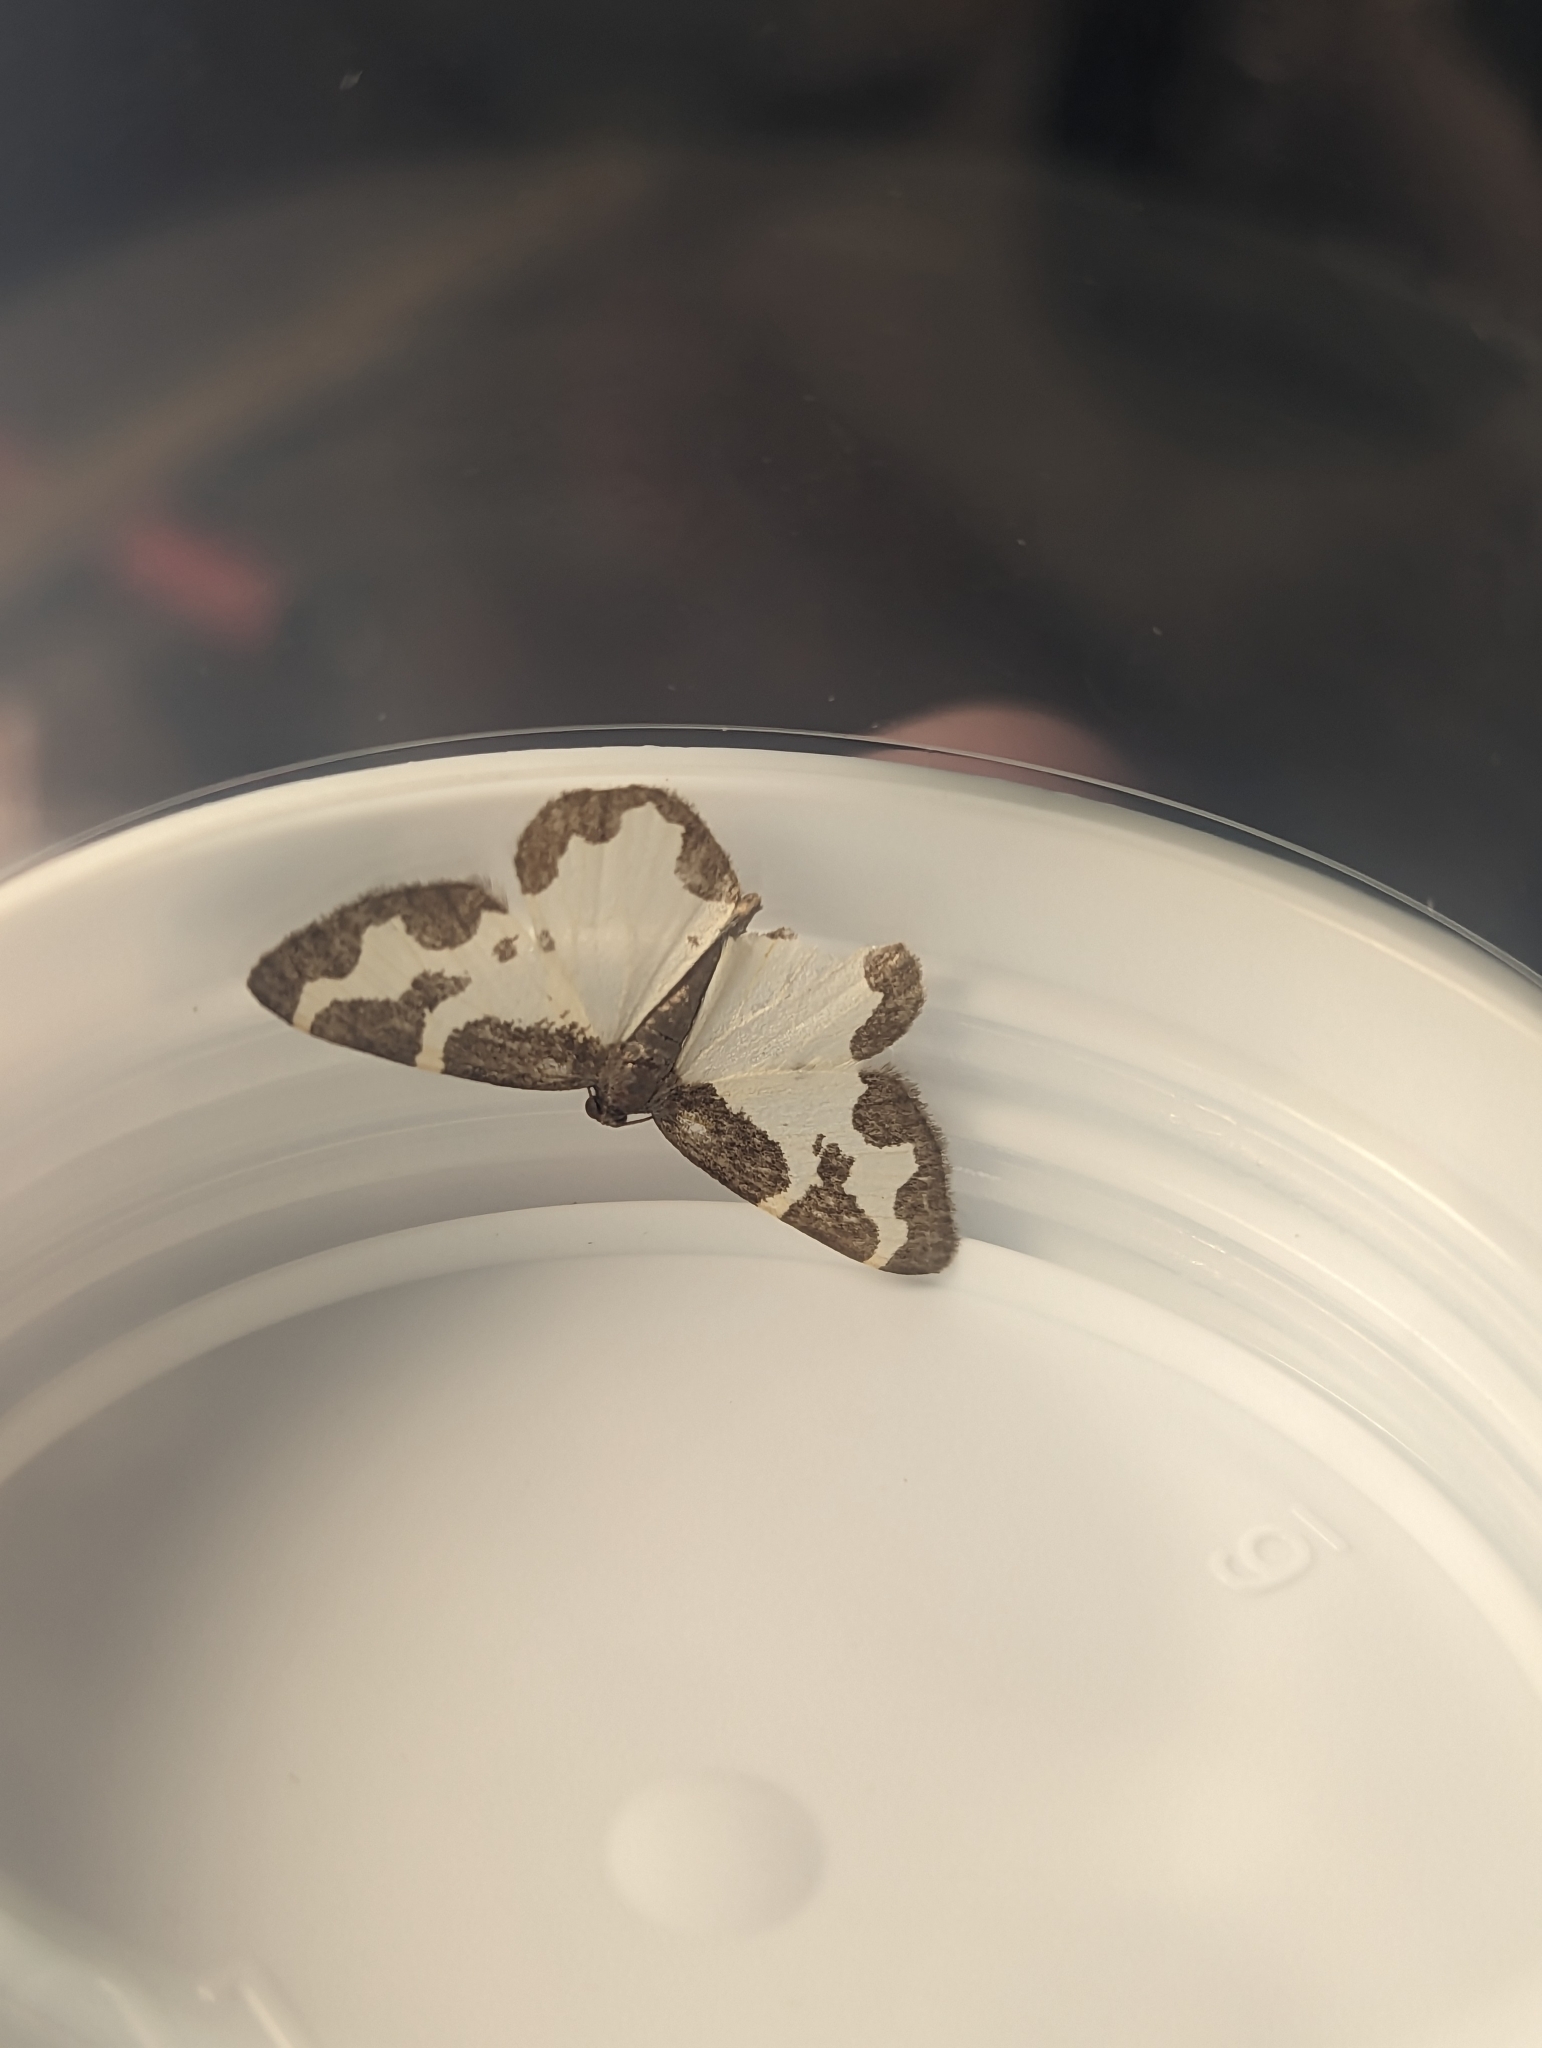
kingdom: Animalia
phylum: Arthropoda
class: Insecta
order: Lepidoptera
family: Geometridae
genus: Lomaspilis
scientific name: Lomaspilis marginata
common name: Clouded border
